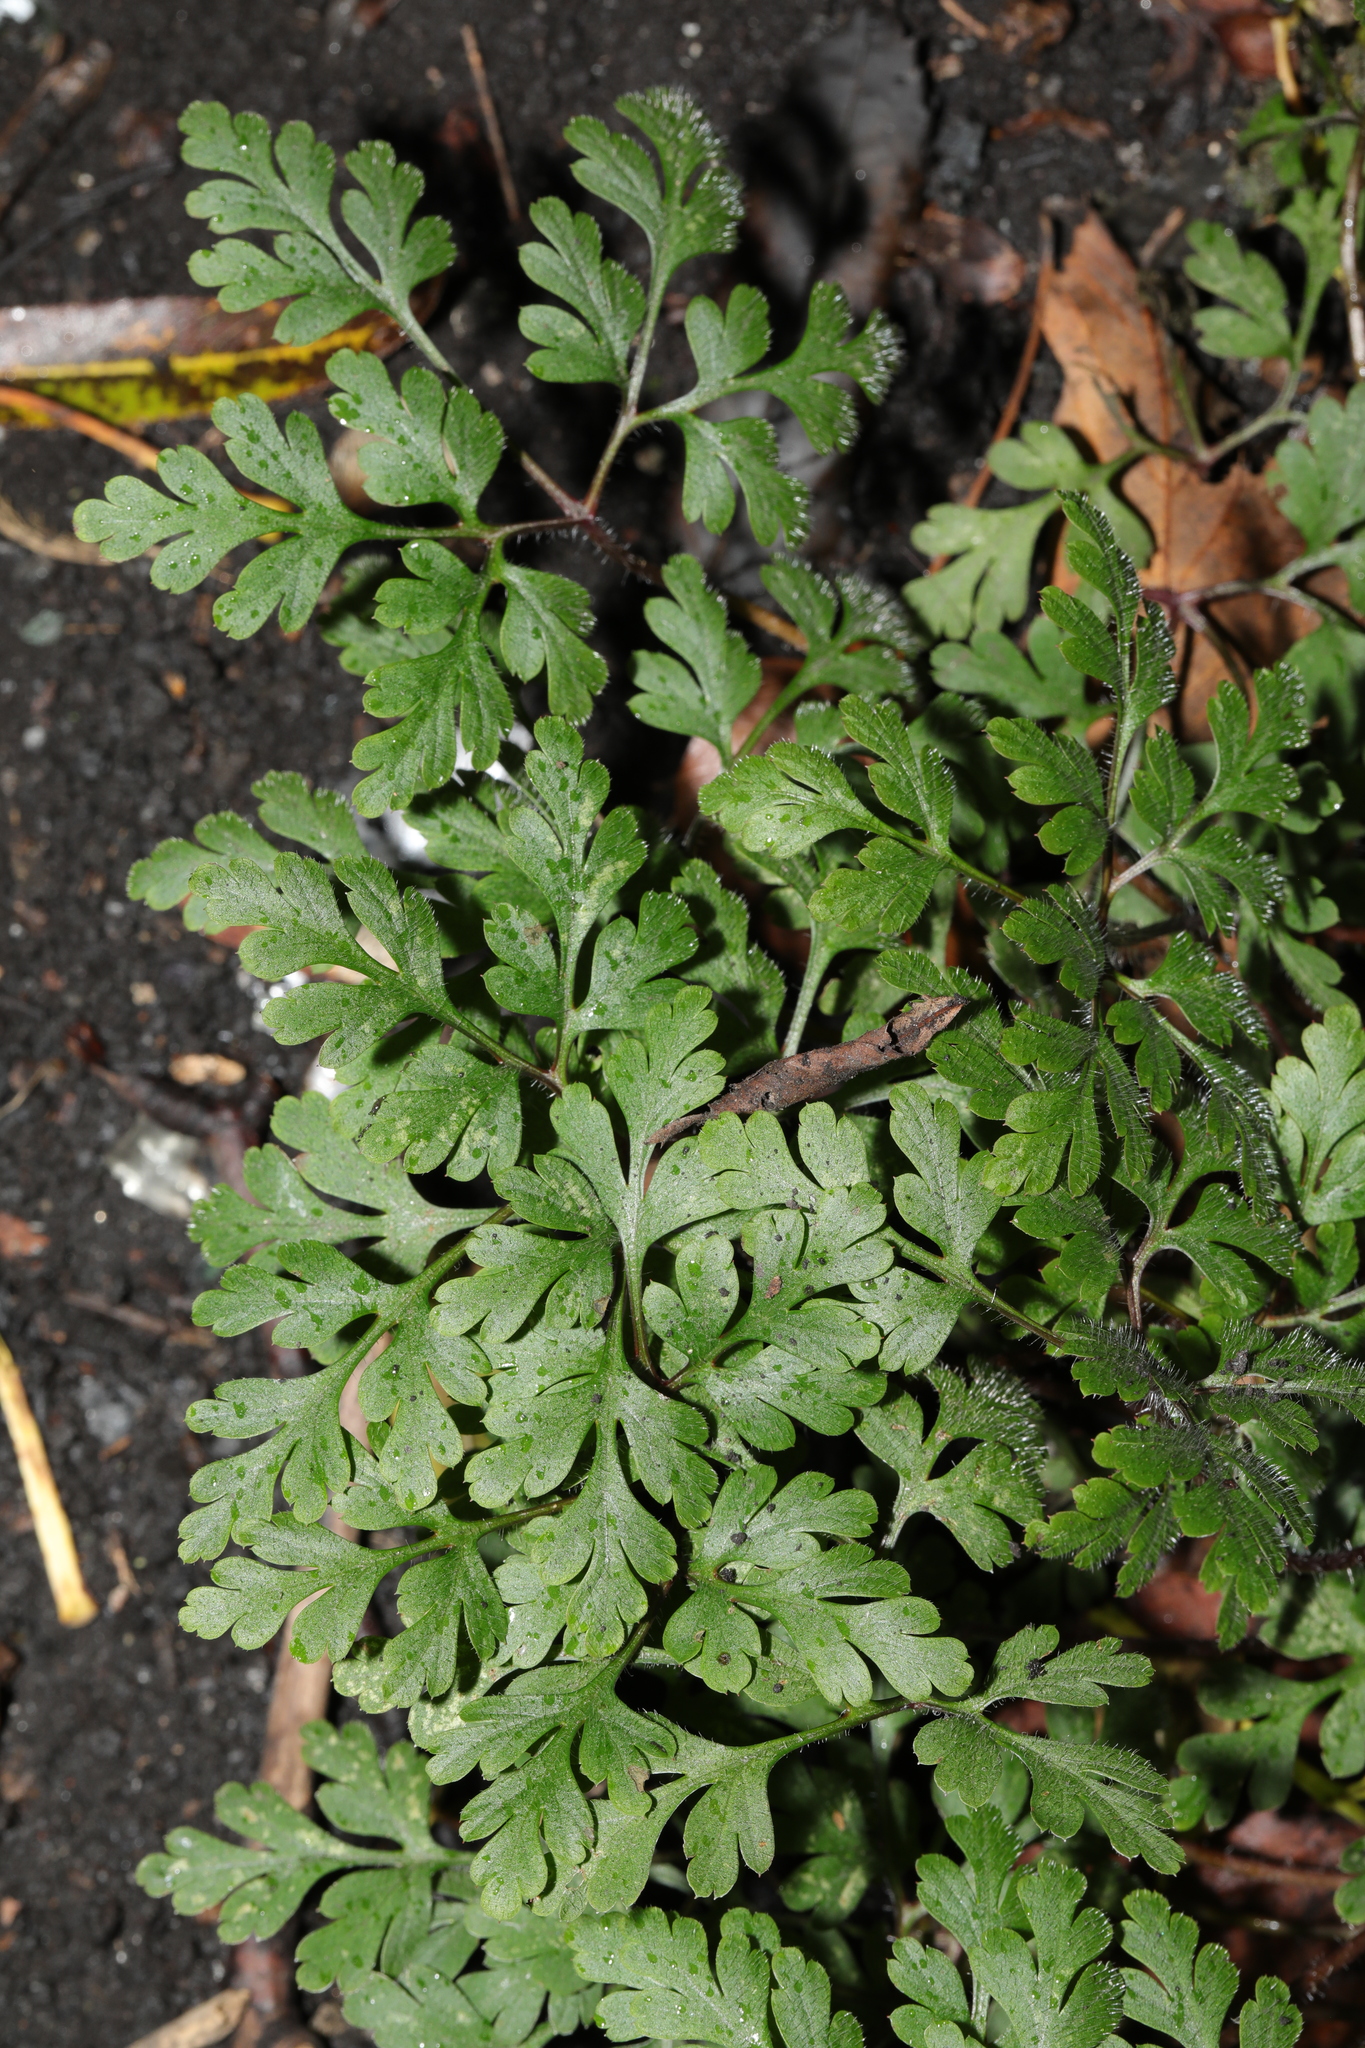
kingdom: Plantae
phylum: Tracheophyta
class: Magnoliopsida
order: Geraniales
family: Geraniaceae
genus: Geranium
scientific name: Geranium robertianum
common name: Herb-robert
